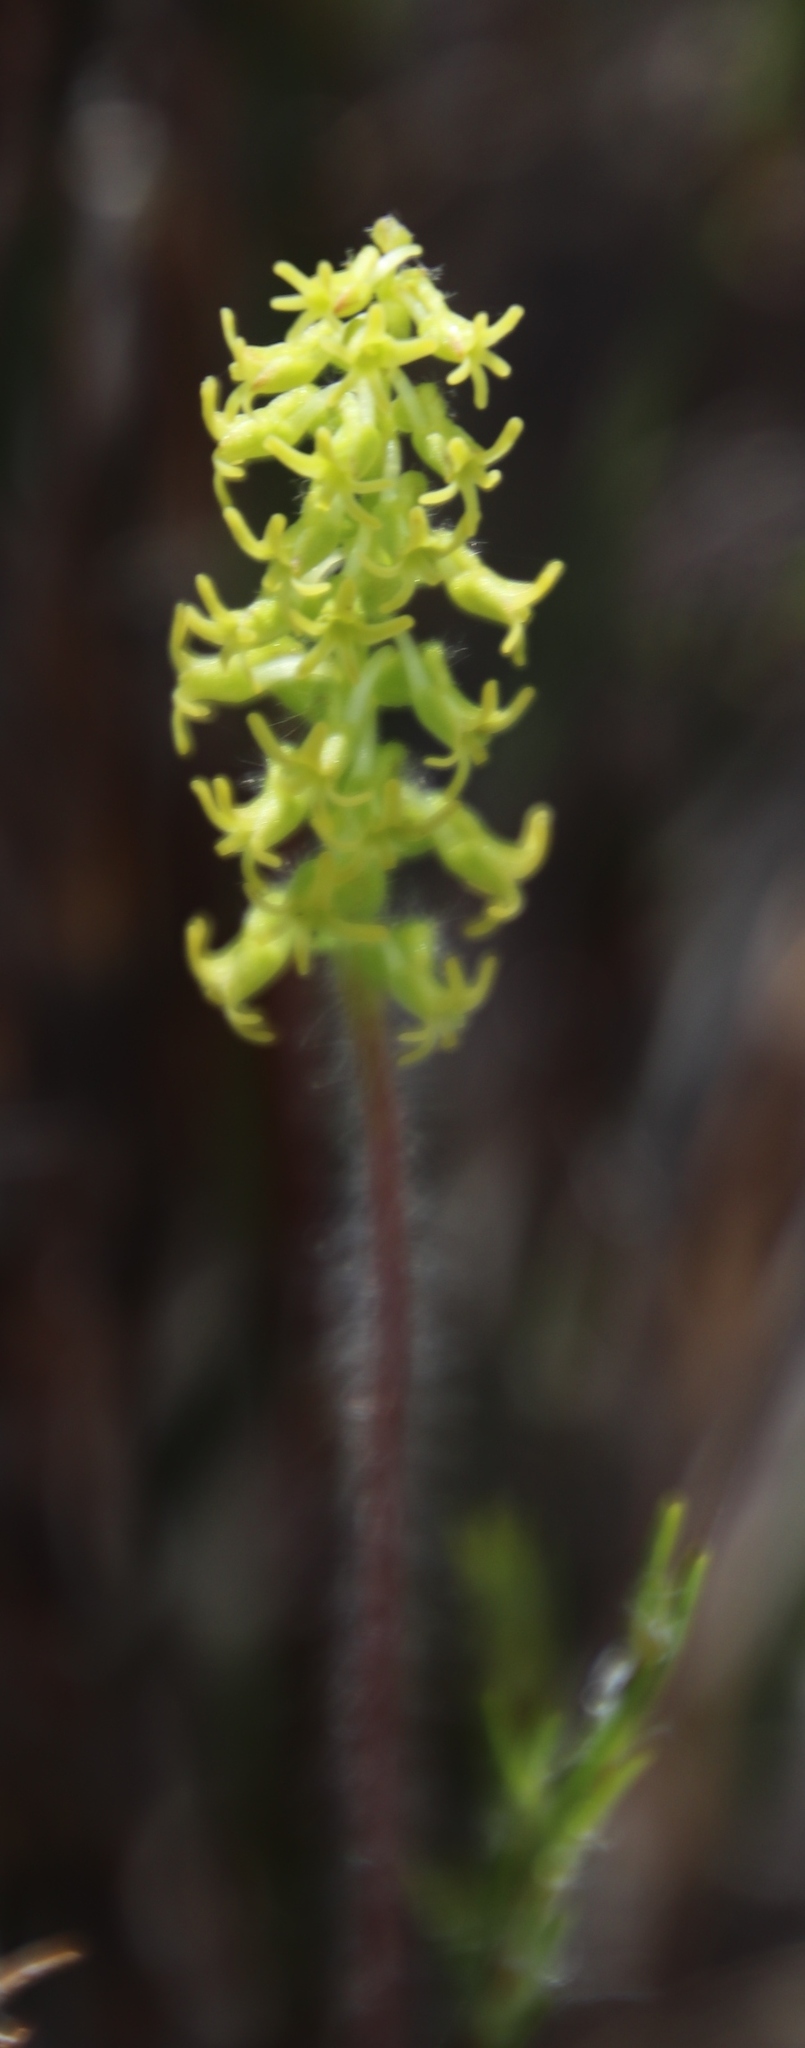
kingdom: Plantae
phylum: Tracheophyta
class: Liliopsida
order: Asparagales
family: Orchidaceae
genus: Holothrix
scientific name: Holothrix villosa
